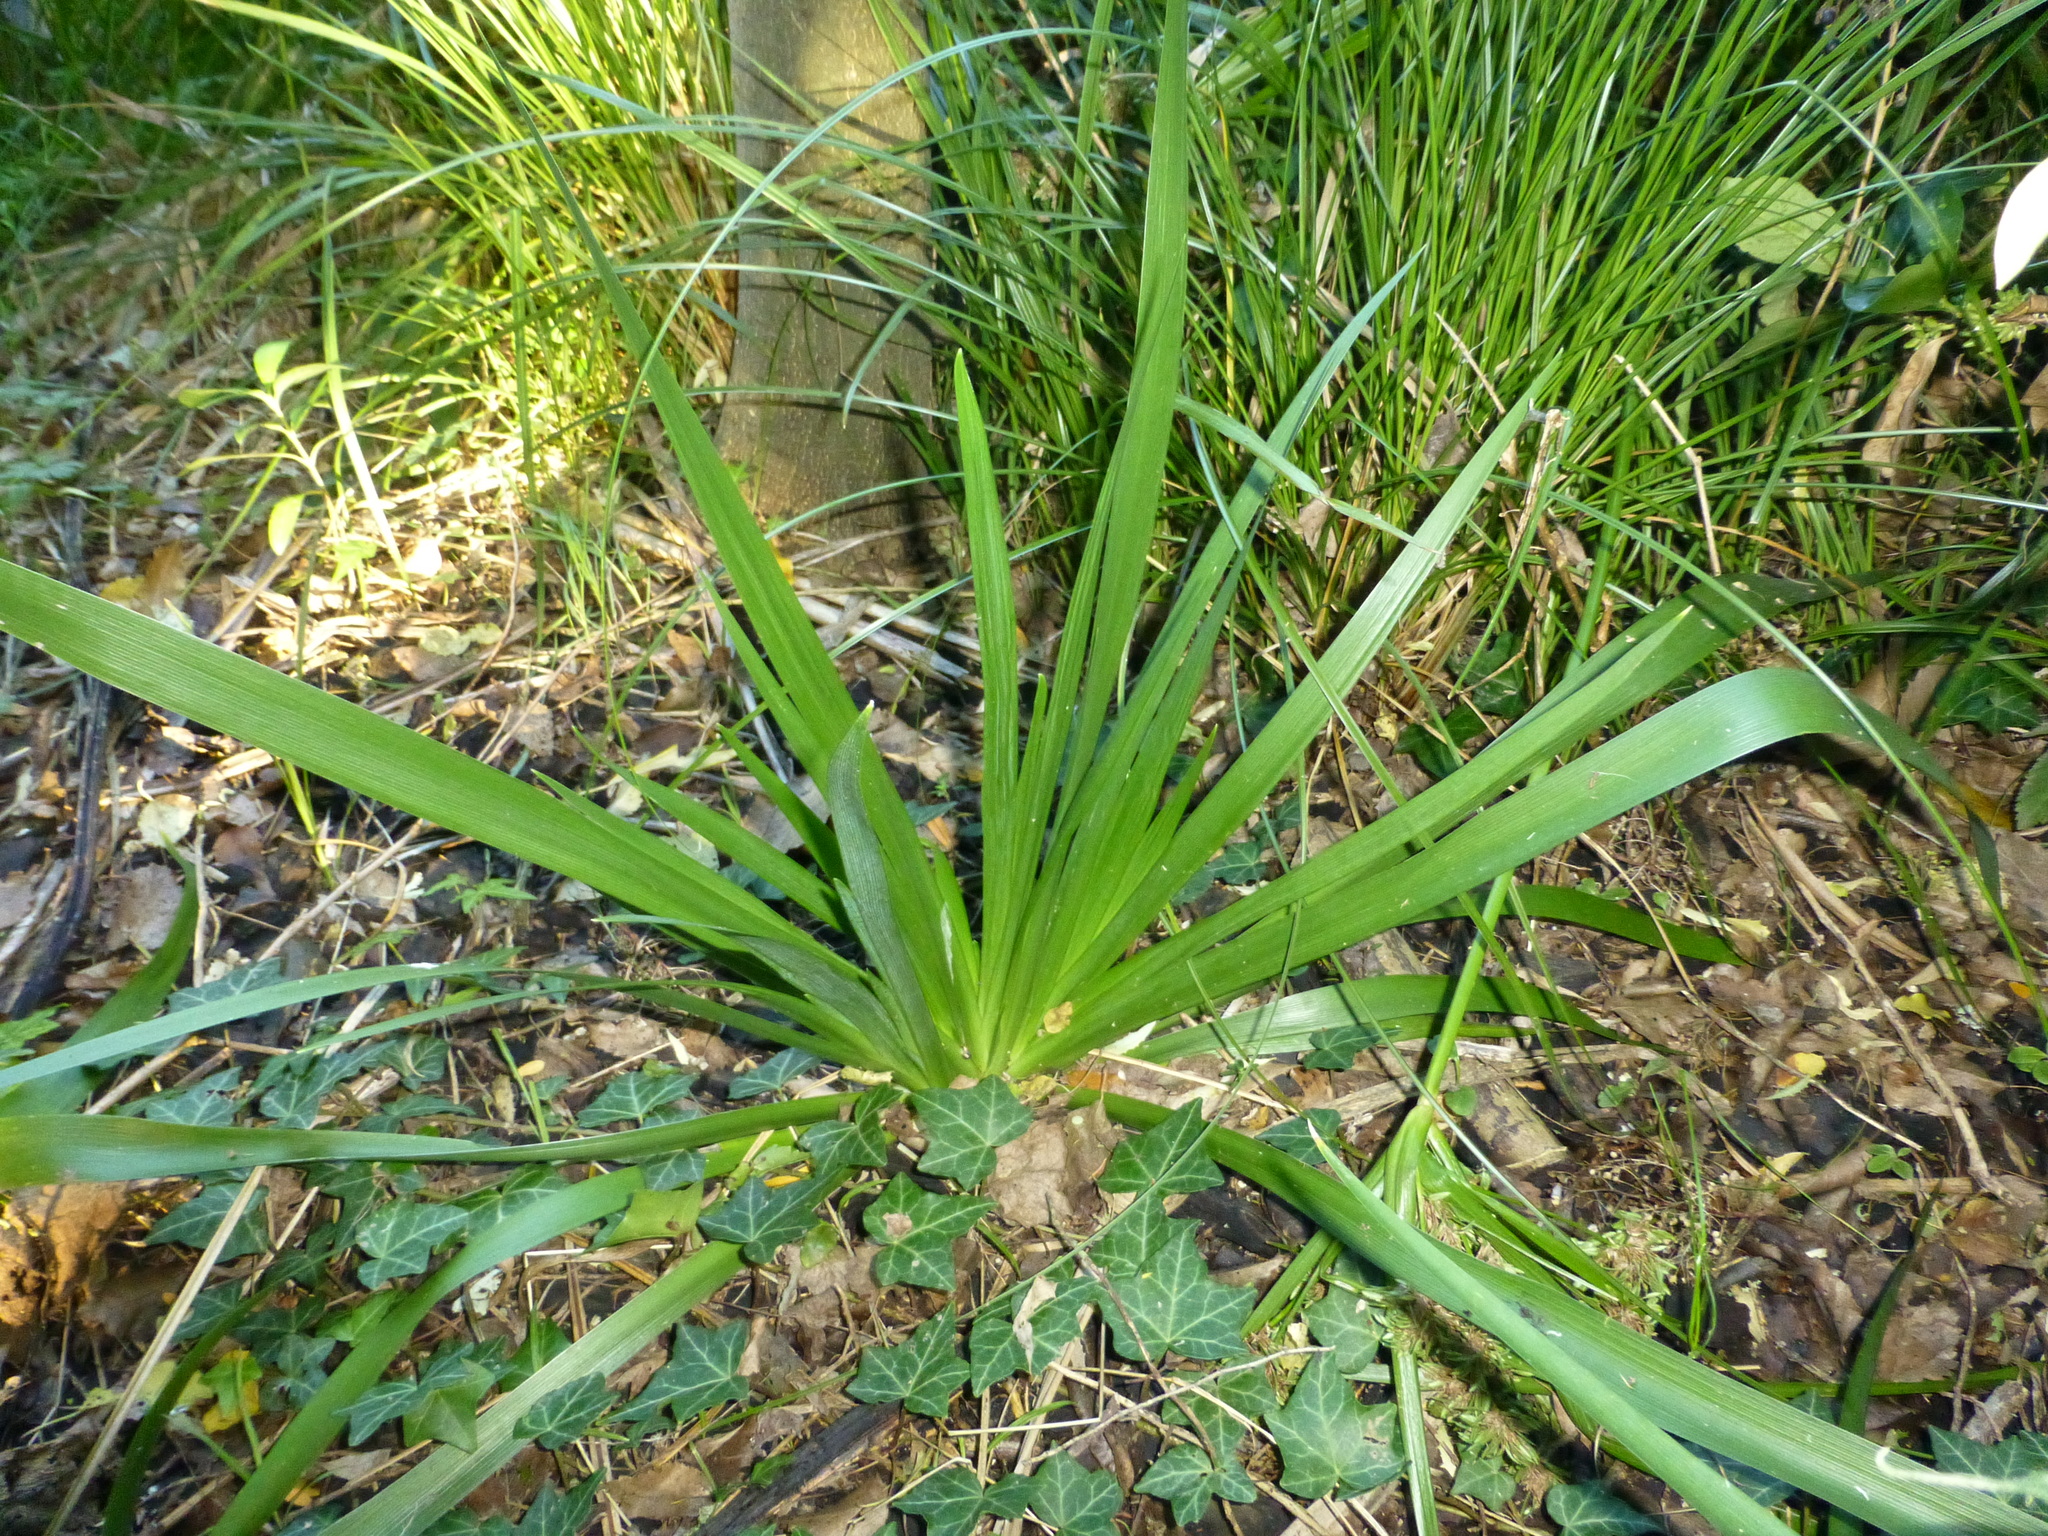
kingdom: Plantae
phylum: Tracheophyta
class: Liliopsida
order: Asparagales
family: Iridaceae
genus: Iris
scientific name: Iris pseudacorus
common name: Yellow flag
